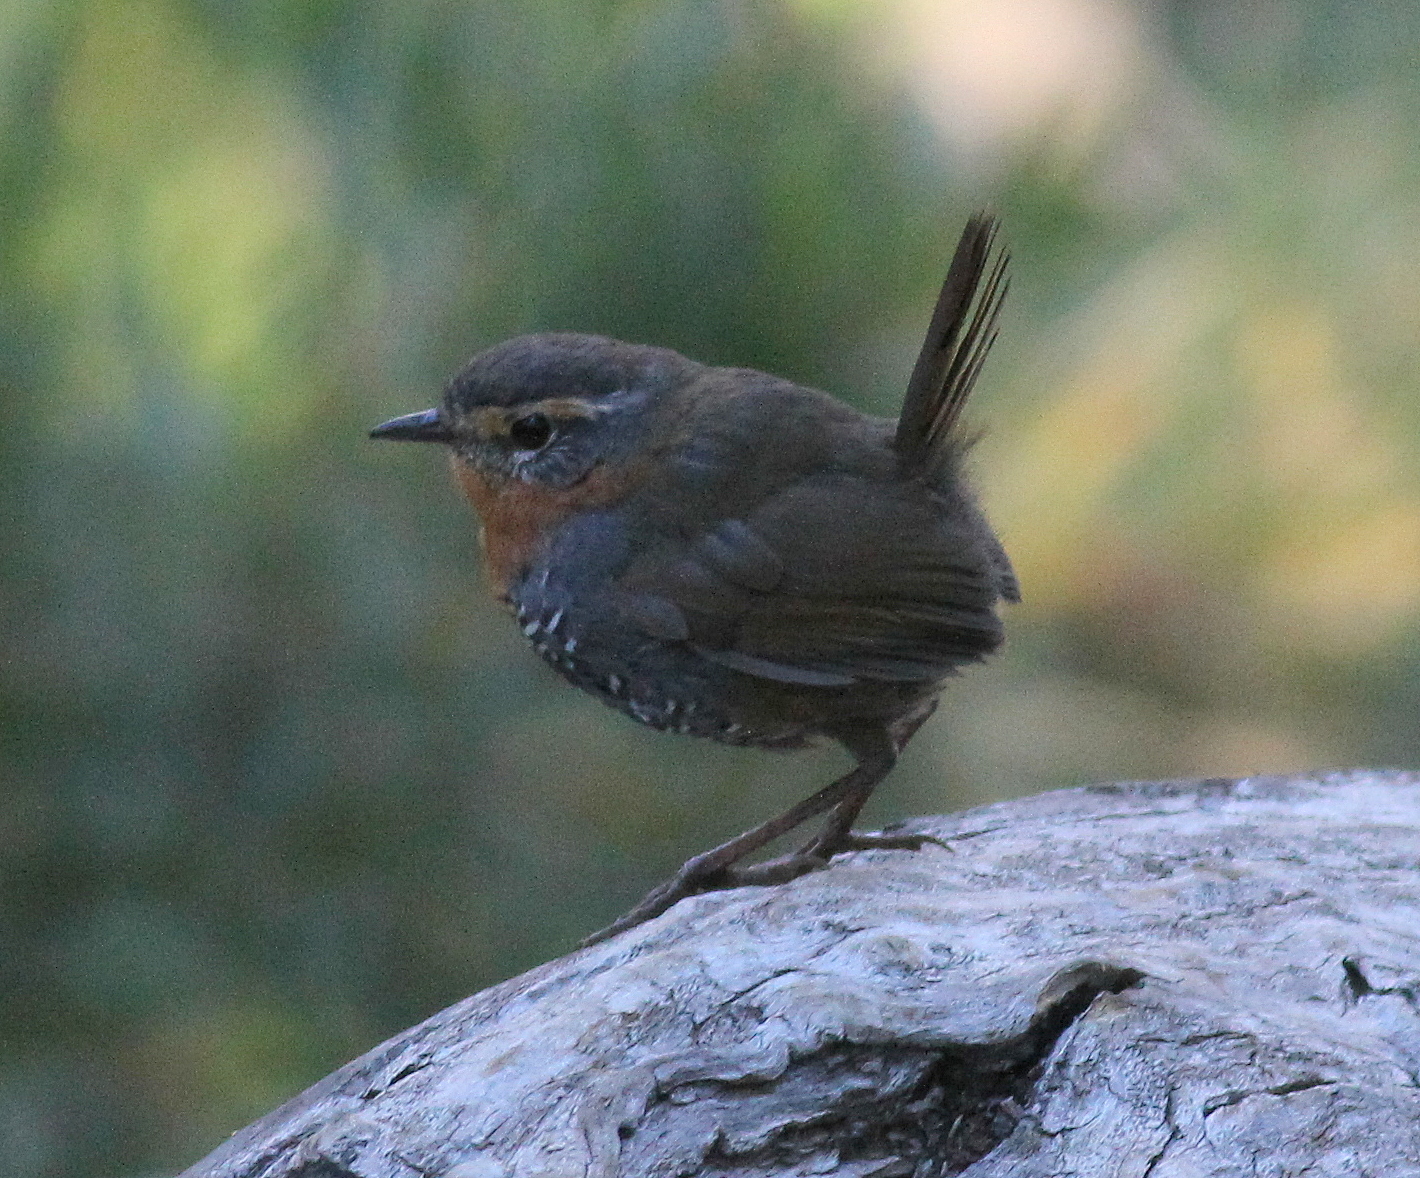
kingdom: Animalia
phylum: Chordata
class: Aves
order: Passeriformes
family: Rhinocryptidae
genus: Scelorchilus
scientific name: Scelorchilus rubecula
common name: Chucao tapaculo
